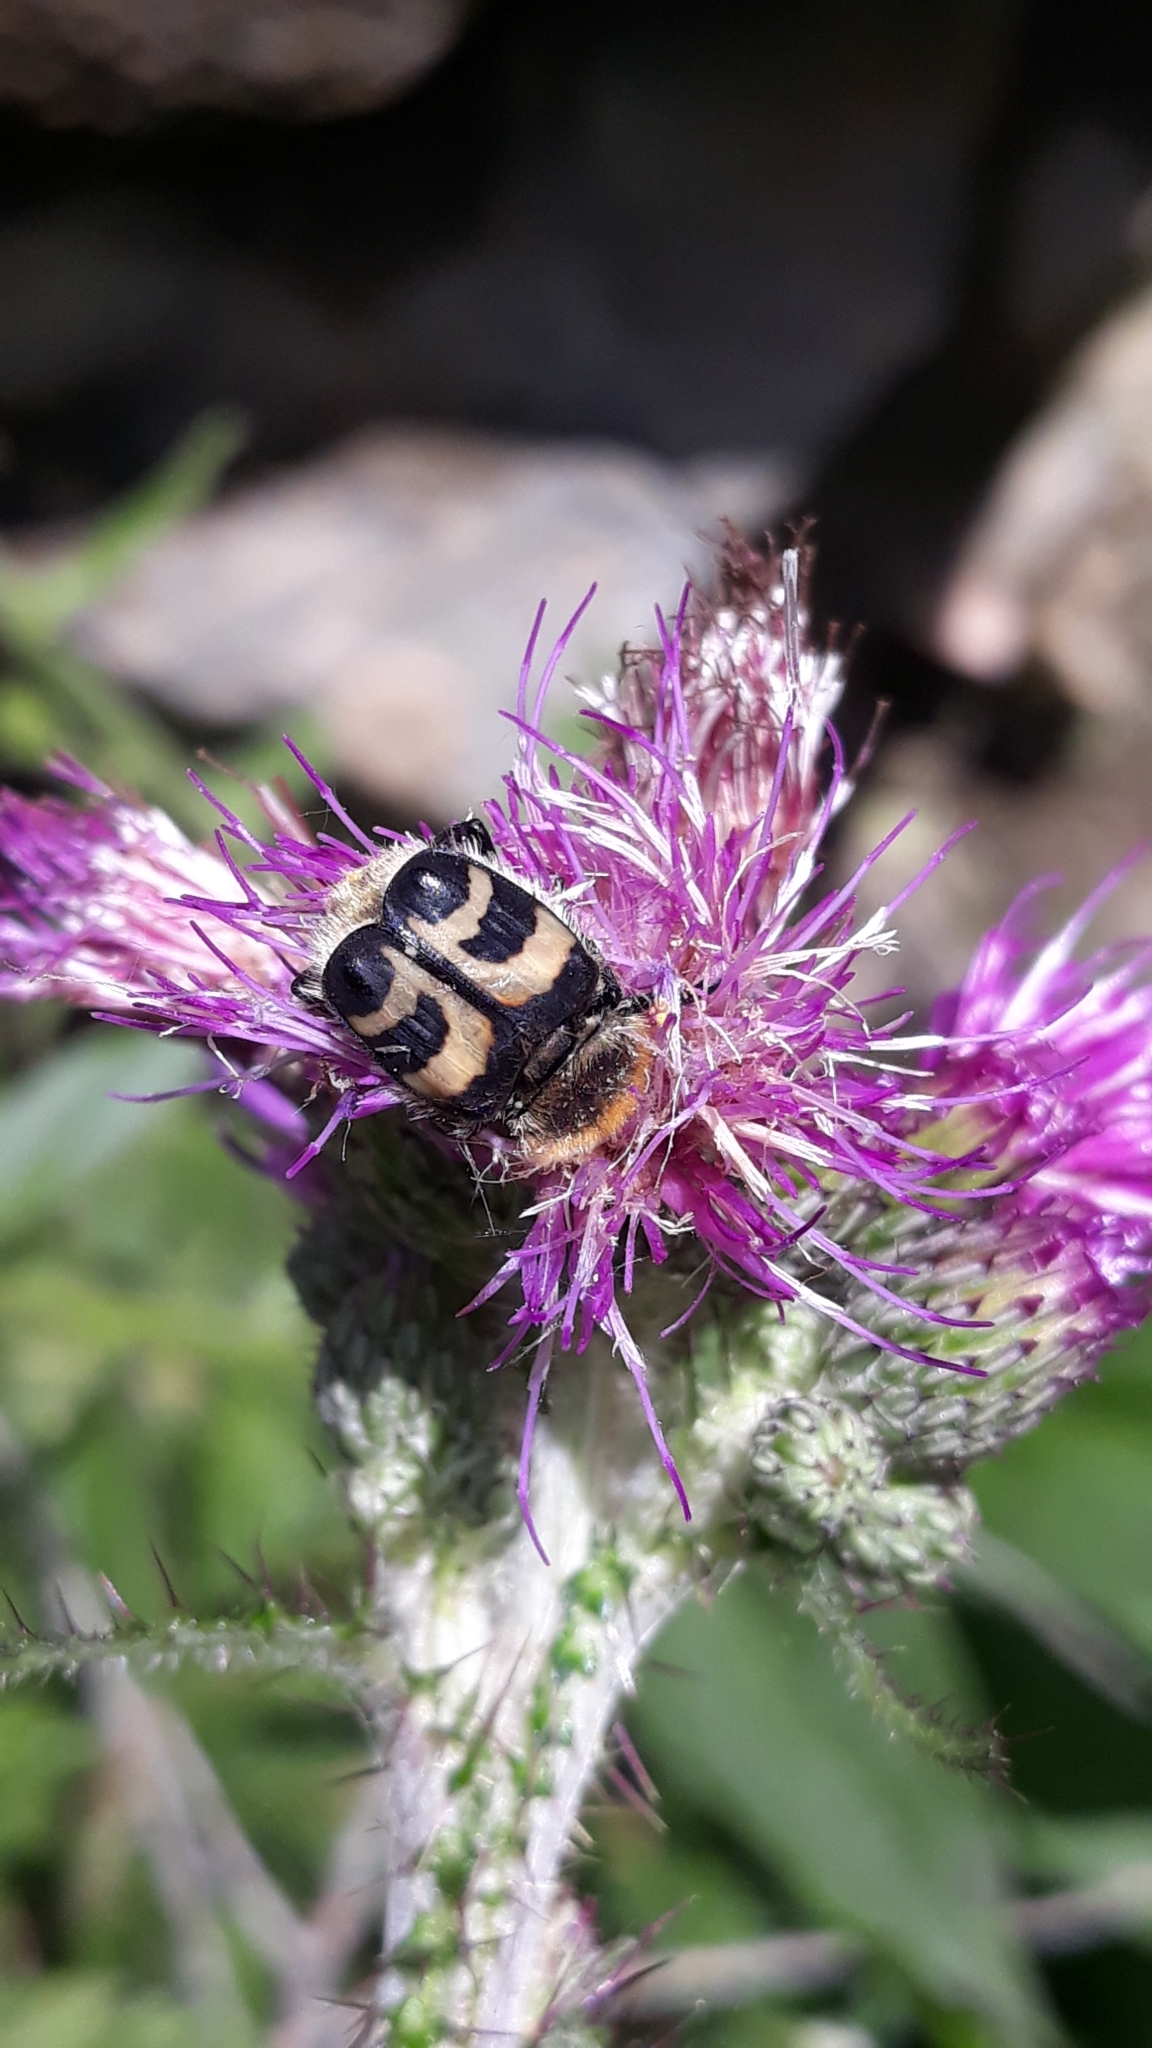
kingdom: Animalia
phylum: Arthropoda
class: Insecta
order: Coleoptera
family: Scarabaeidae
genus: Trichius
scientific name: Trichius fasciatus
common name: Bee beetle
